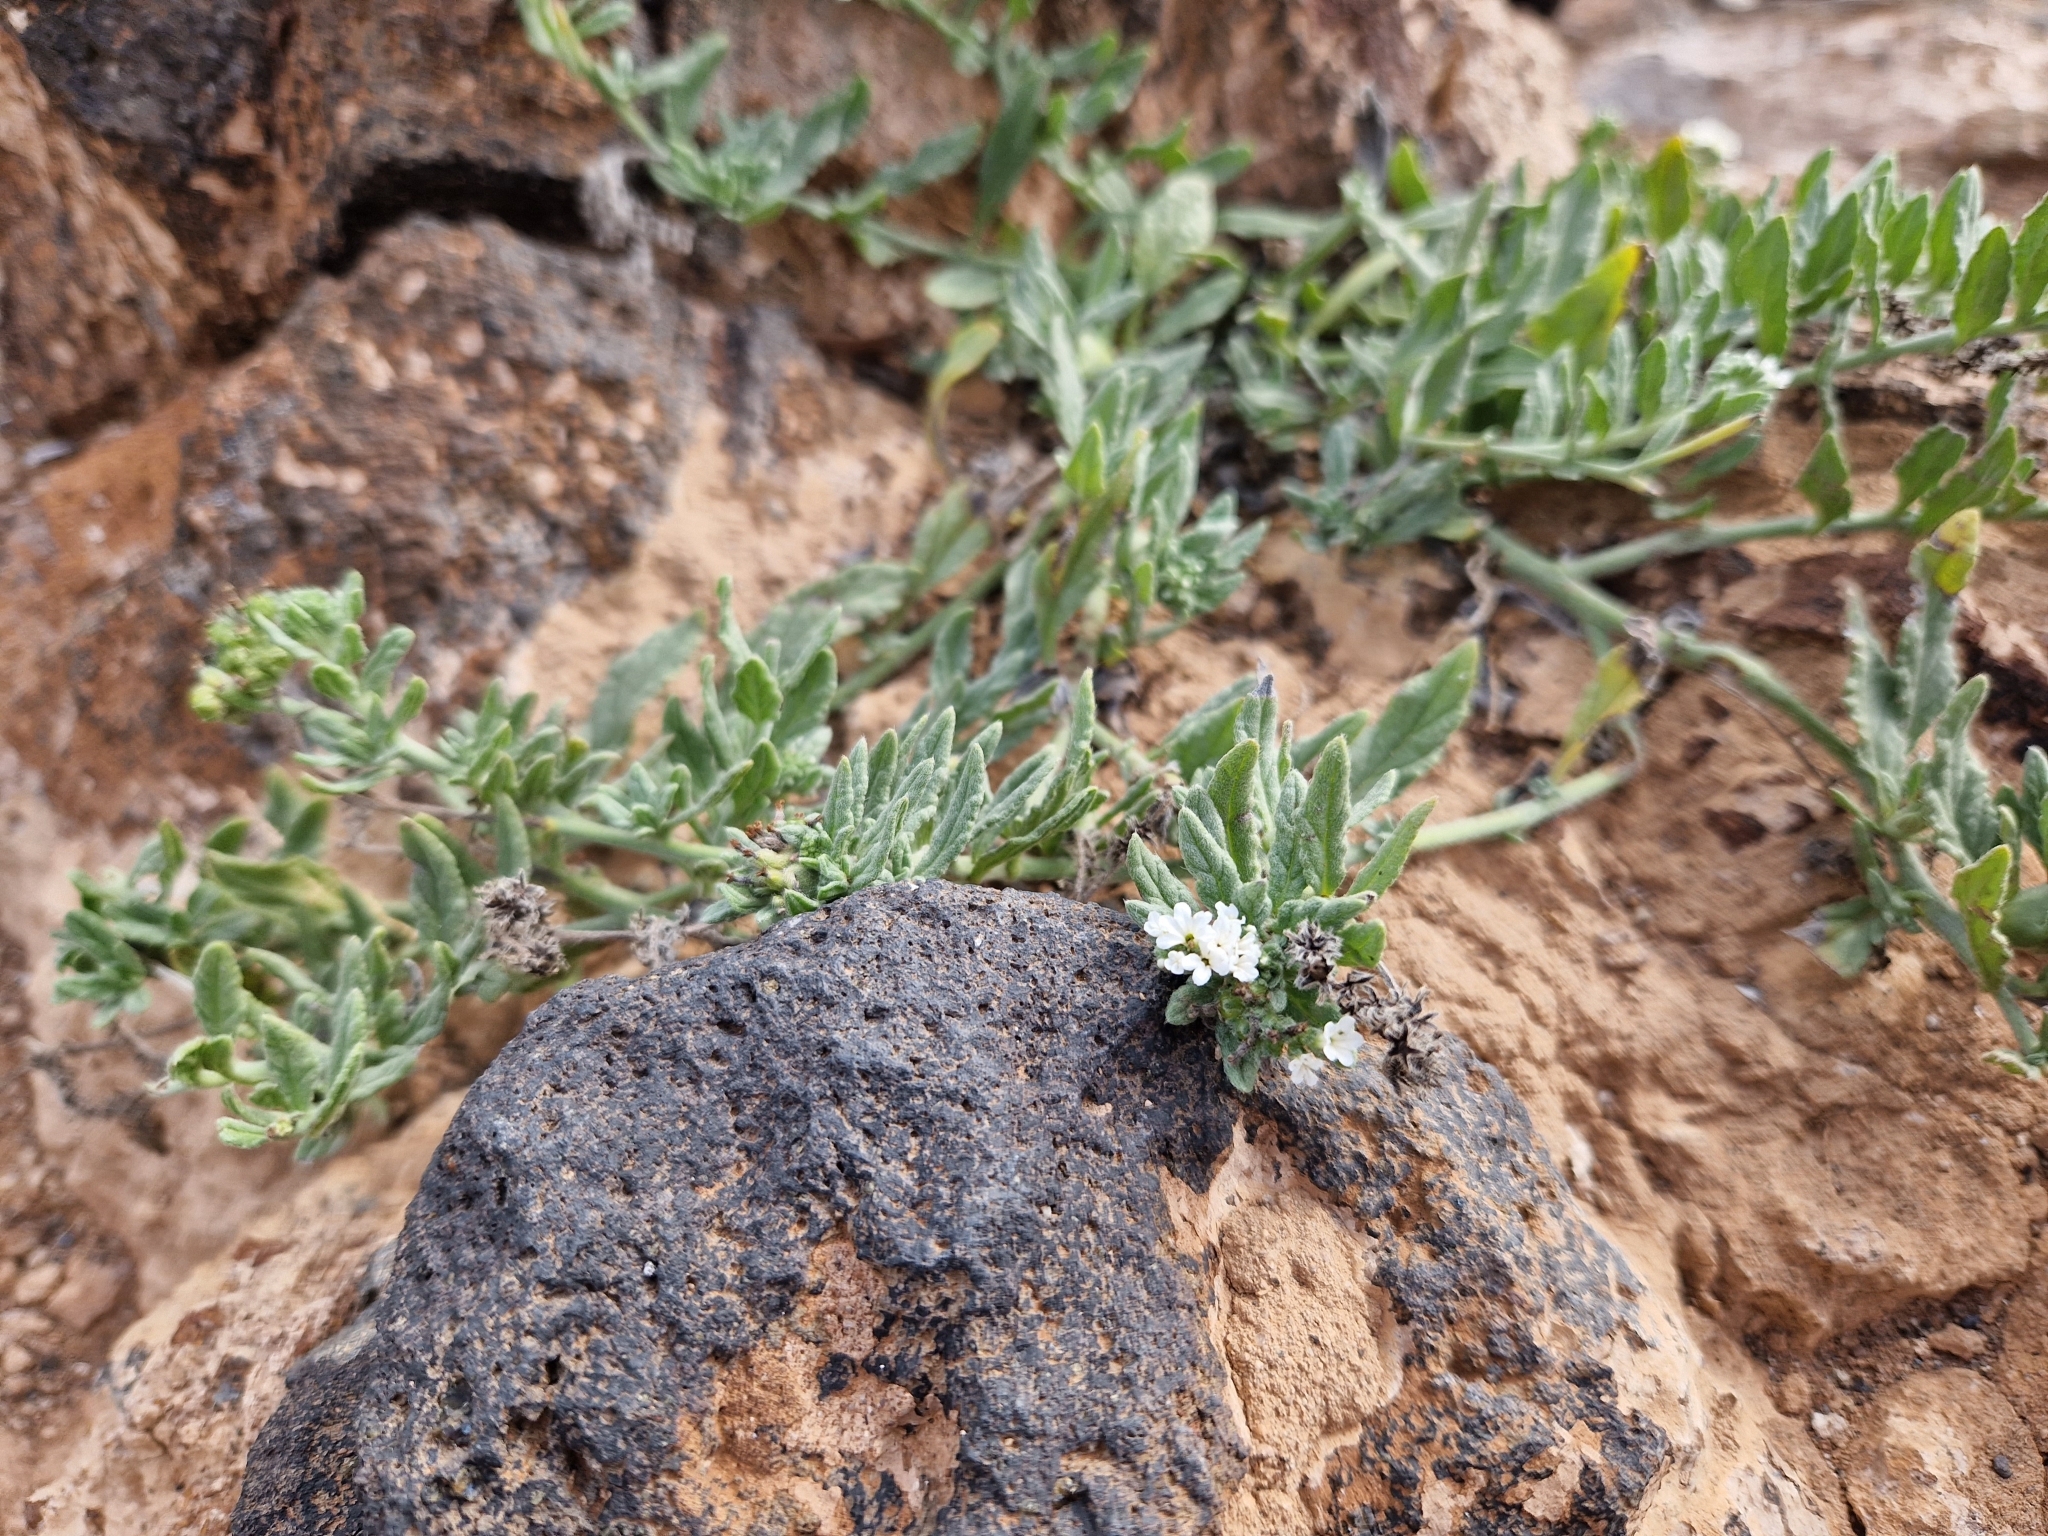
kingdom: Plantae
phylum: Tracheophyta
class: Magnoliopsida
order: Boraginales
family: Heliotropiaceae
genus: Heliotropium
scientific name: Heliotropium ramosissimum
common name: Wavy heliotrope
